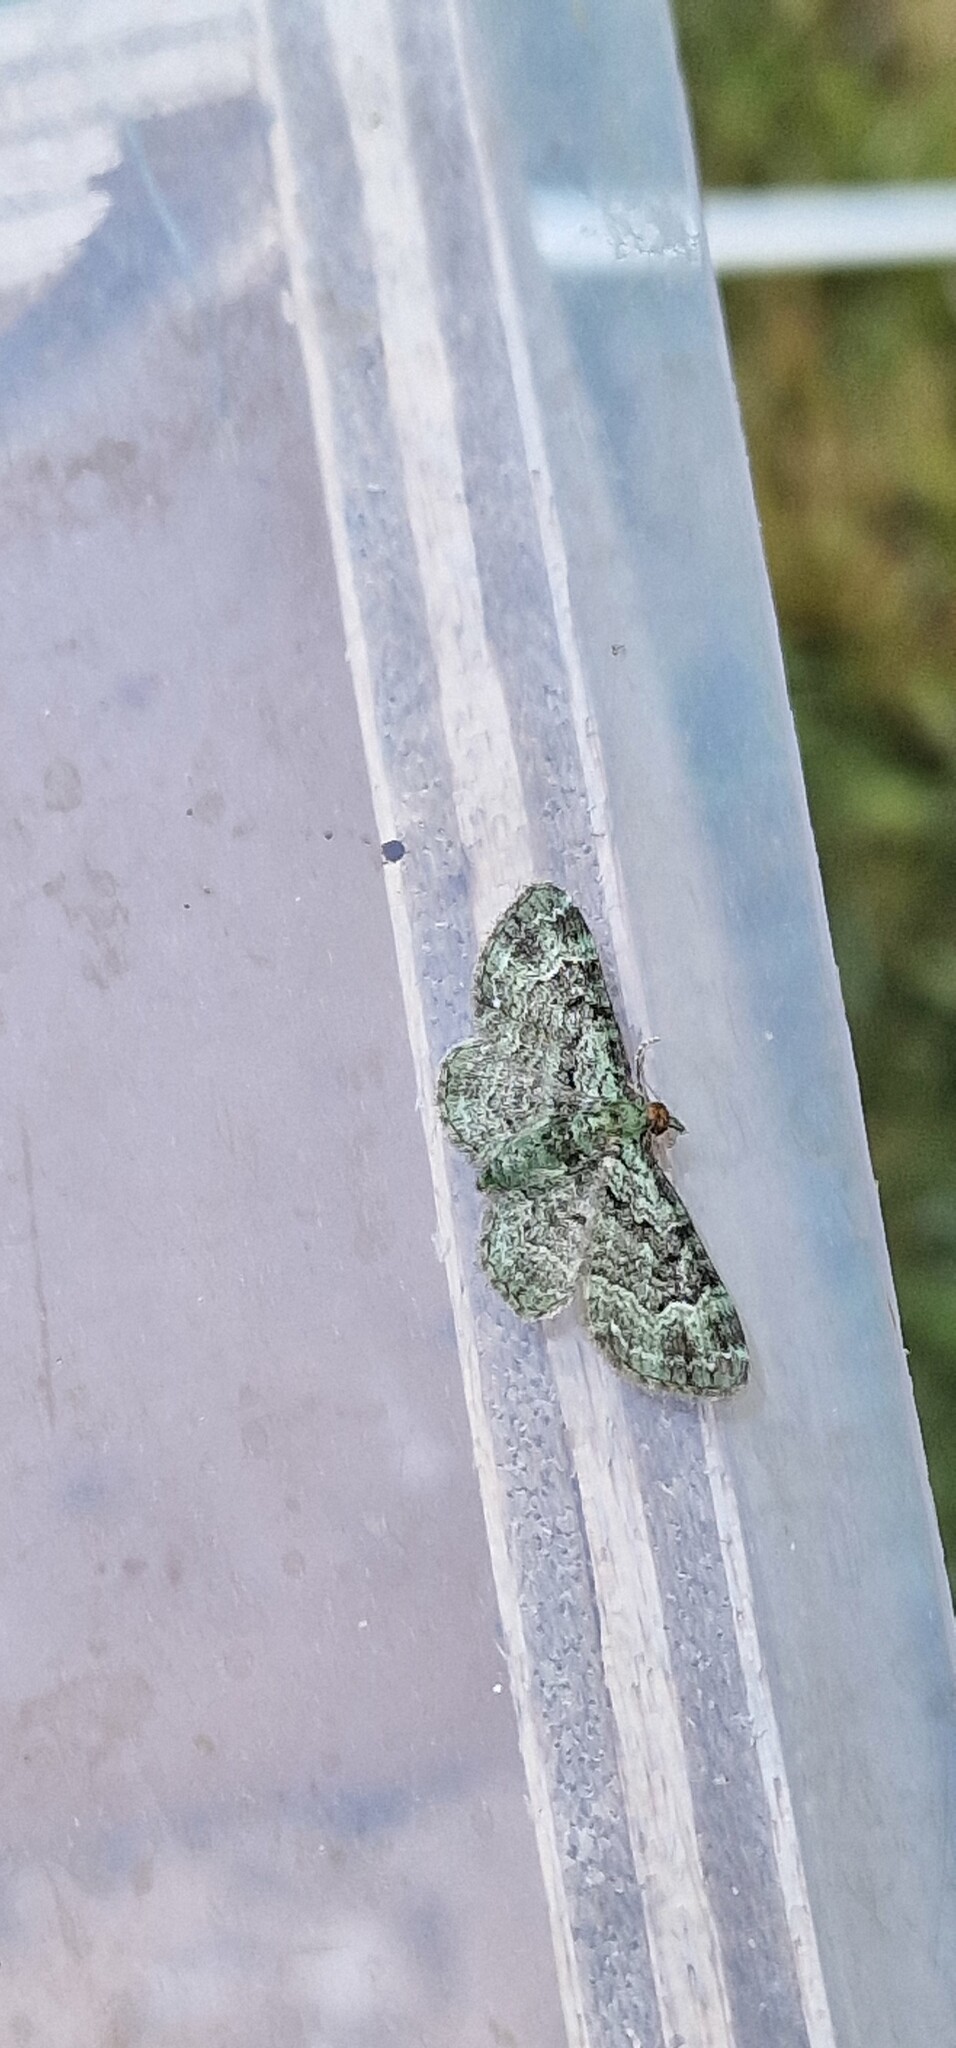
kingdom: Animalia
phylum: Arthropoda
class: Insecta
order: Lepidoptera
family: Geometridae
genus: Pasiphila
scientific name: Pasiphila rectangulata
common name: Green pug
